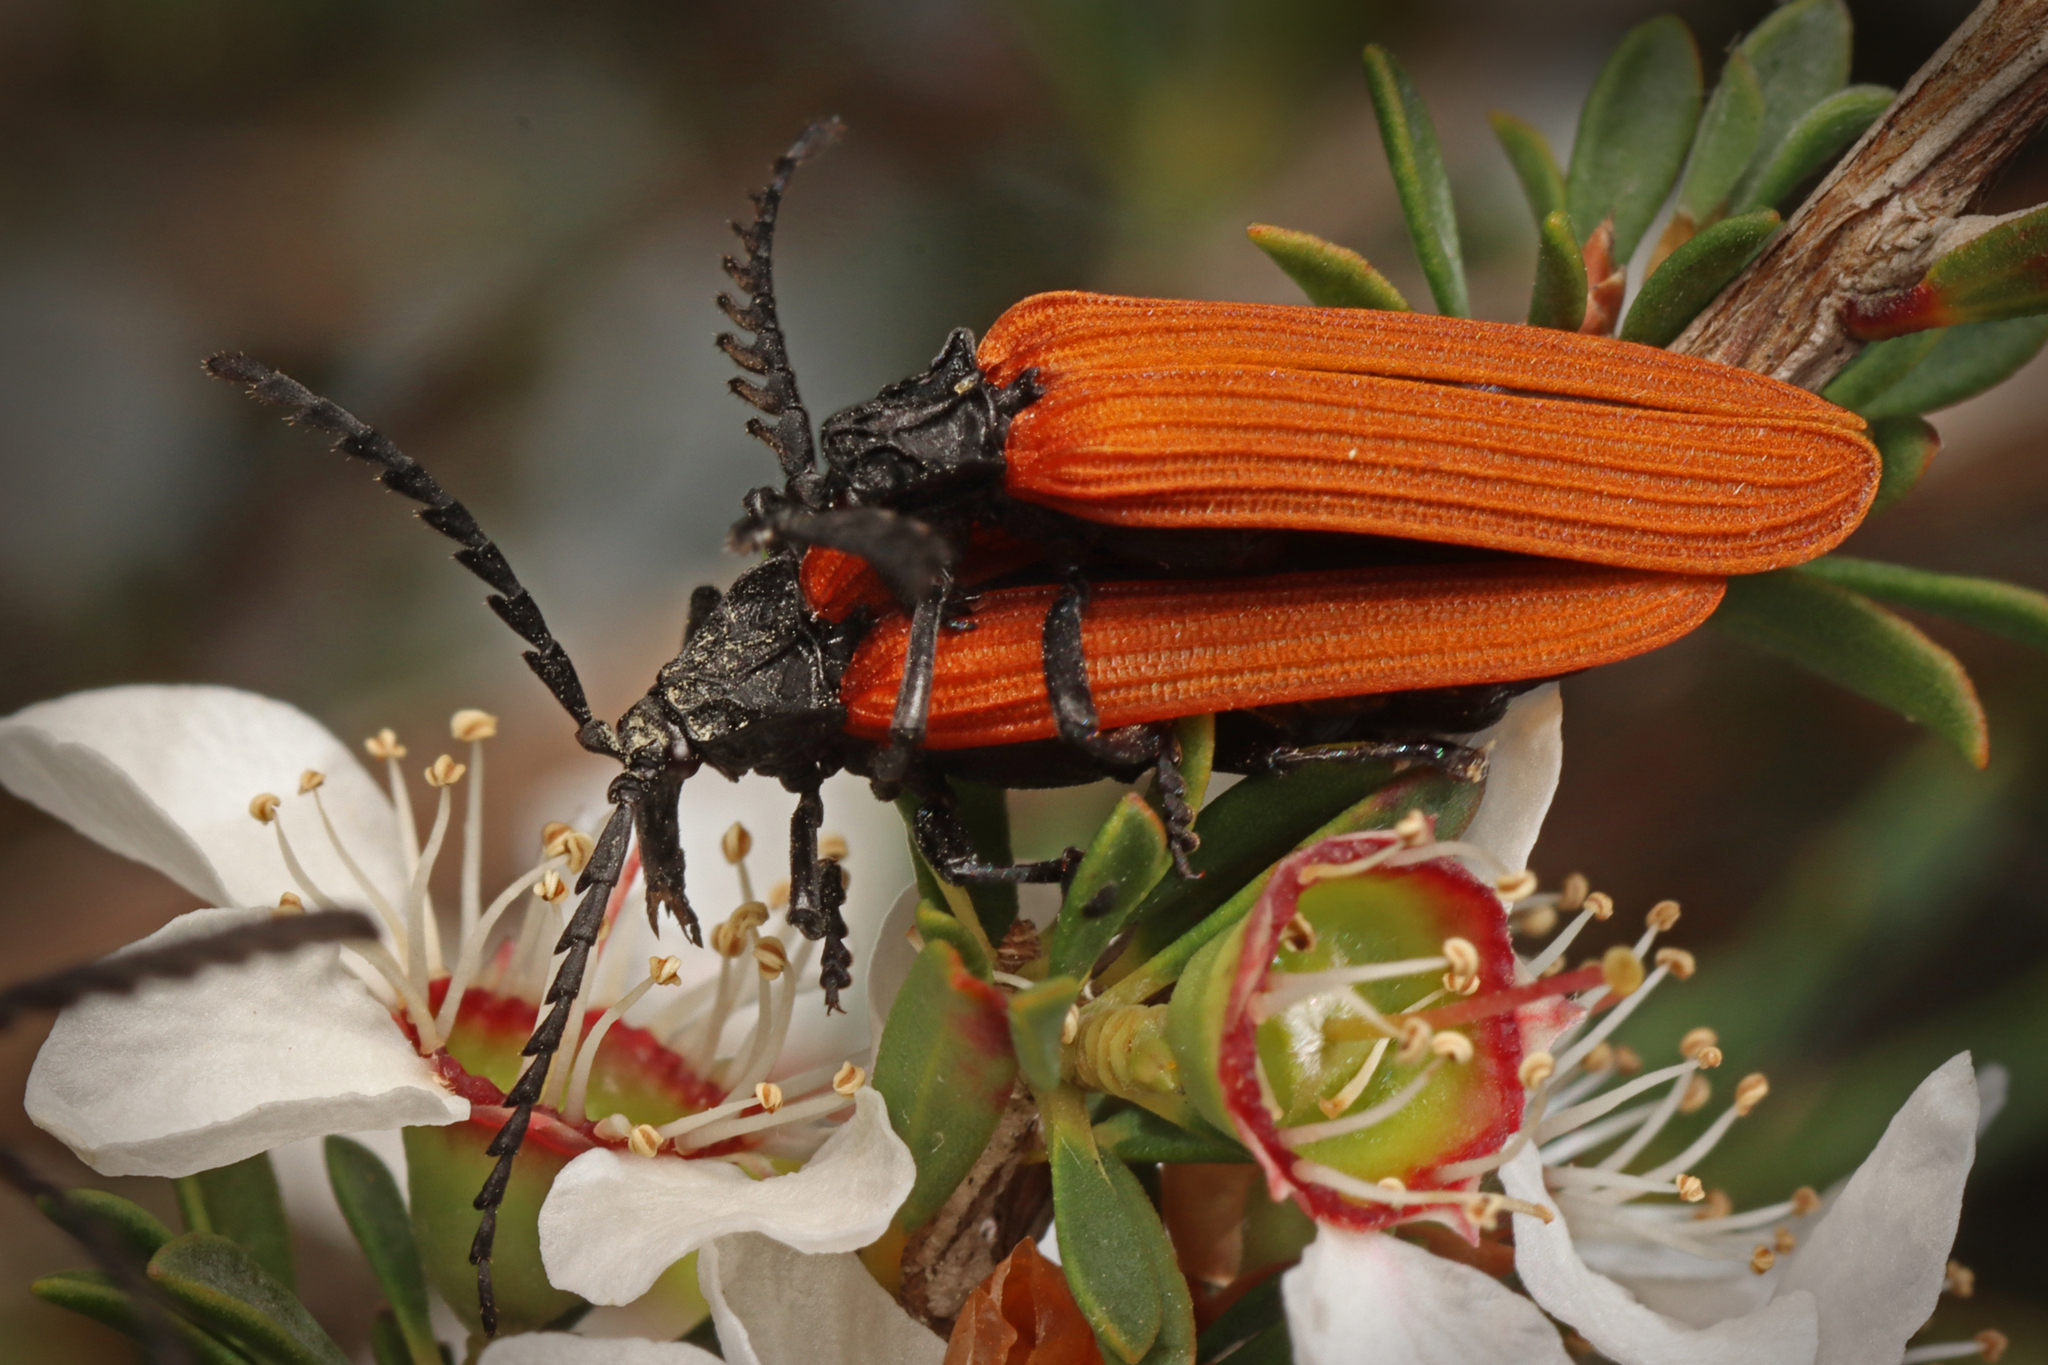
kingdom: Animalia
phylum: Arthropoda
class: Insecta
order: Coleoptera
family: Lycidae
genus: Porrostoma
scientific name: Porrostoma rhipidium
